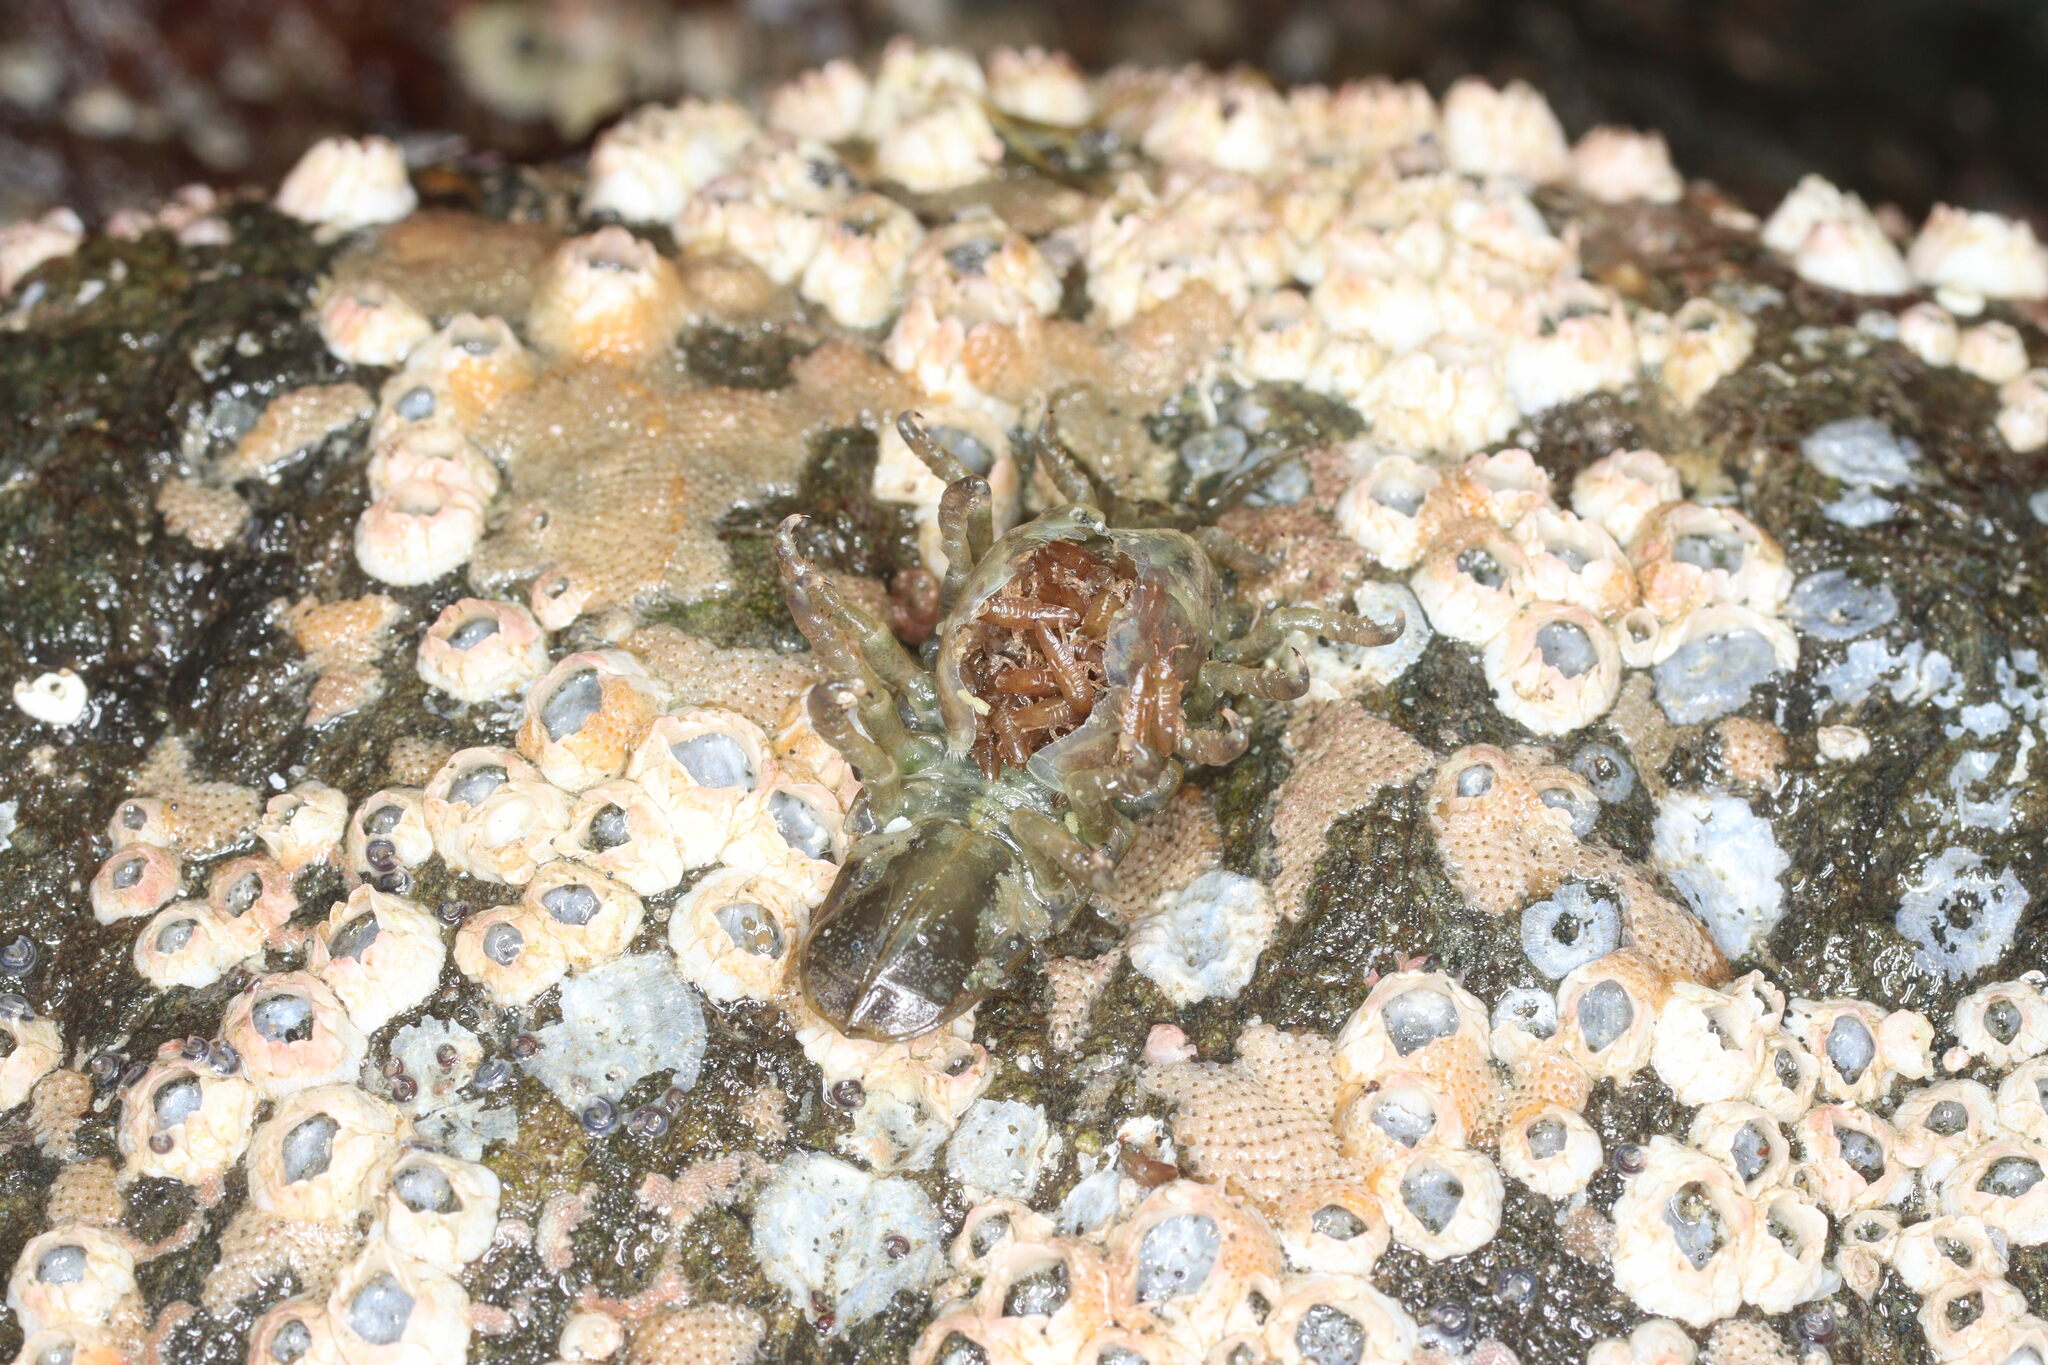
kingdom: Animalia
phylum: Arthropoda
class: Malacostraca
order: Isopoda
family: Idoteidae
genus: Pentidotea
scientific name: Pentidotea wosnesenskii
